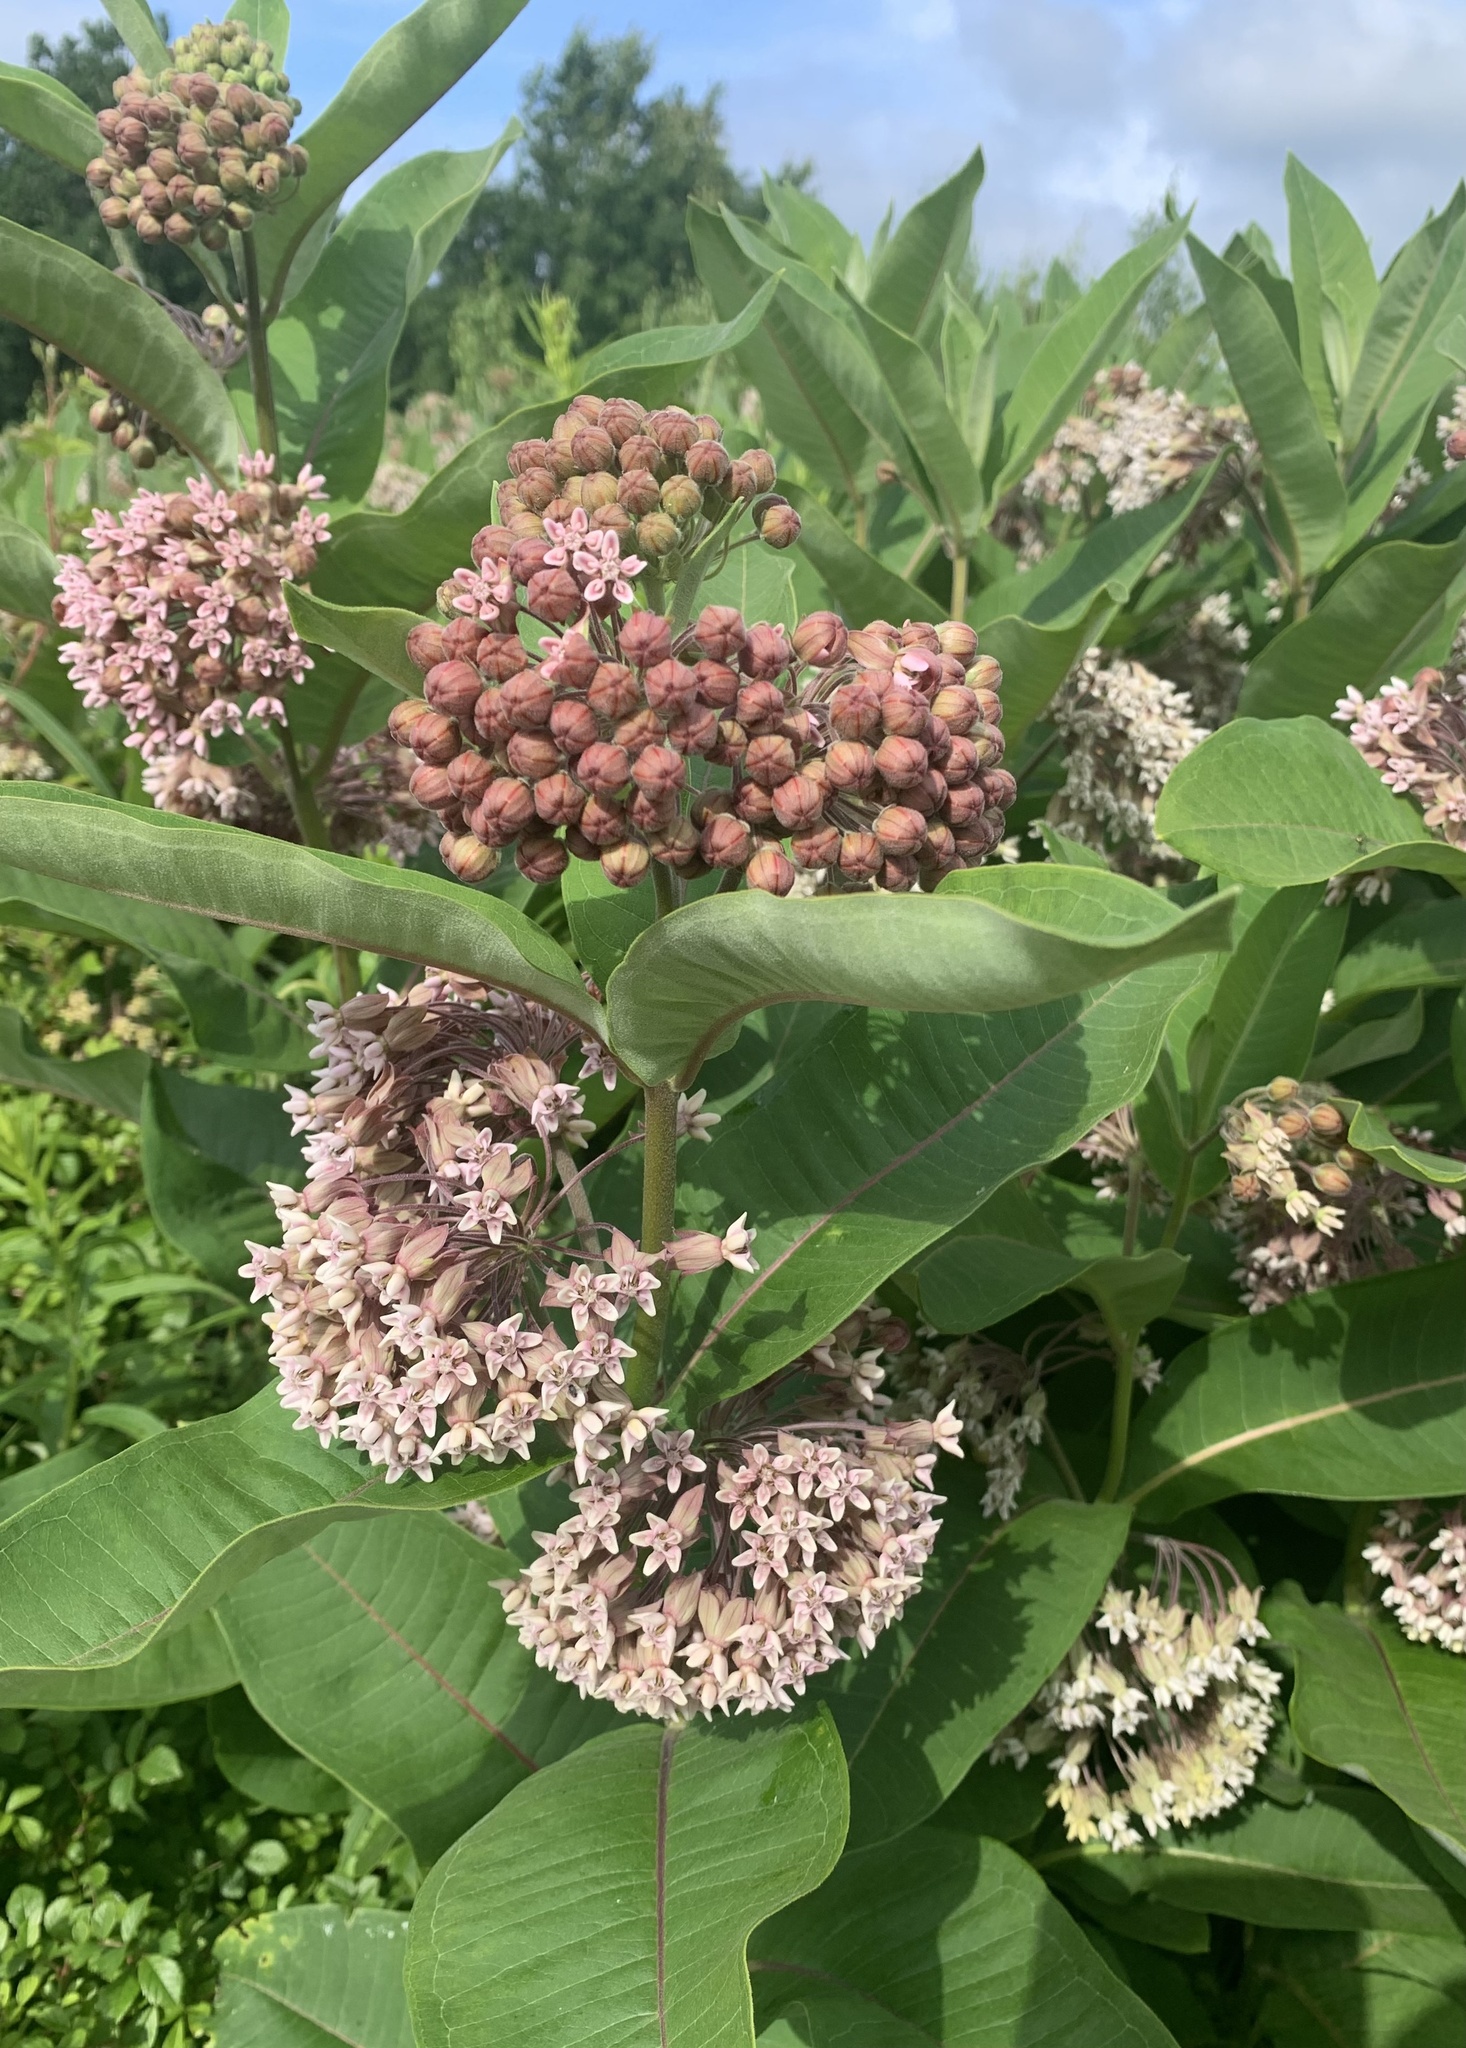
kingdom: Plantae
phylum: Tracheophyta
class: Magnoliopsida
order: Gentianales
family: Apocynaceae
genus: Asclepias
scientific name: Asclepias syriaca
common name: Common milkweed
